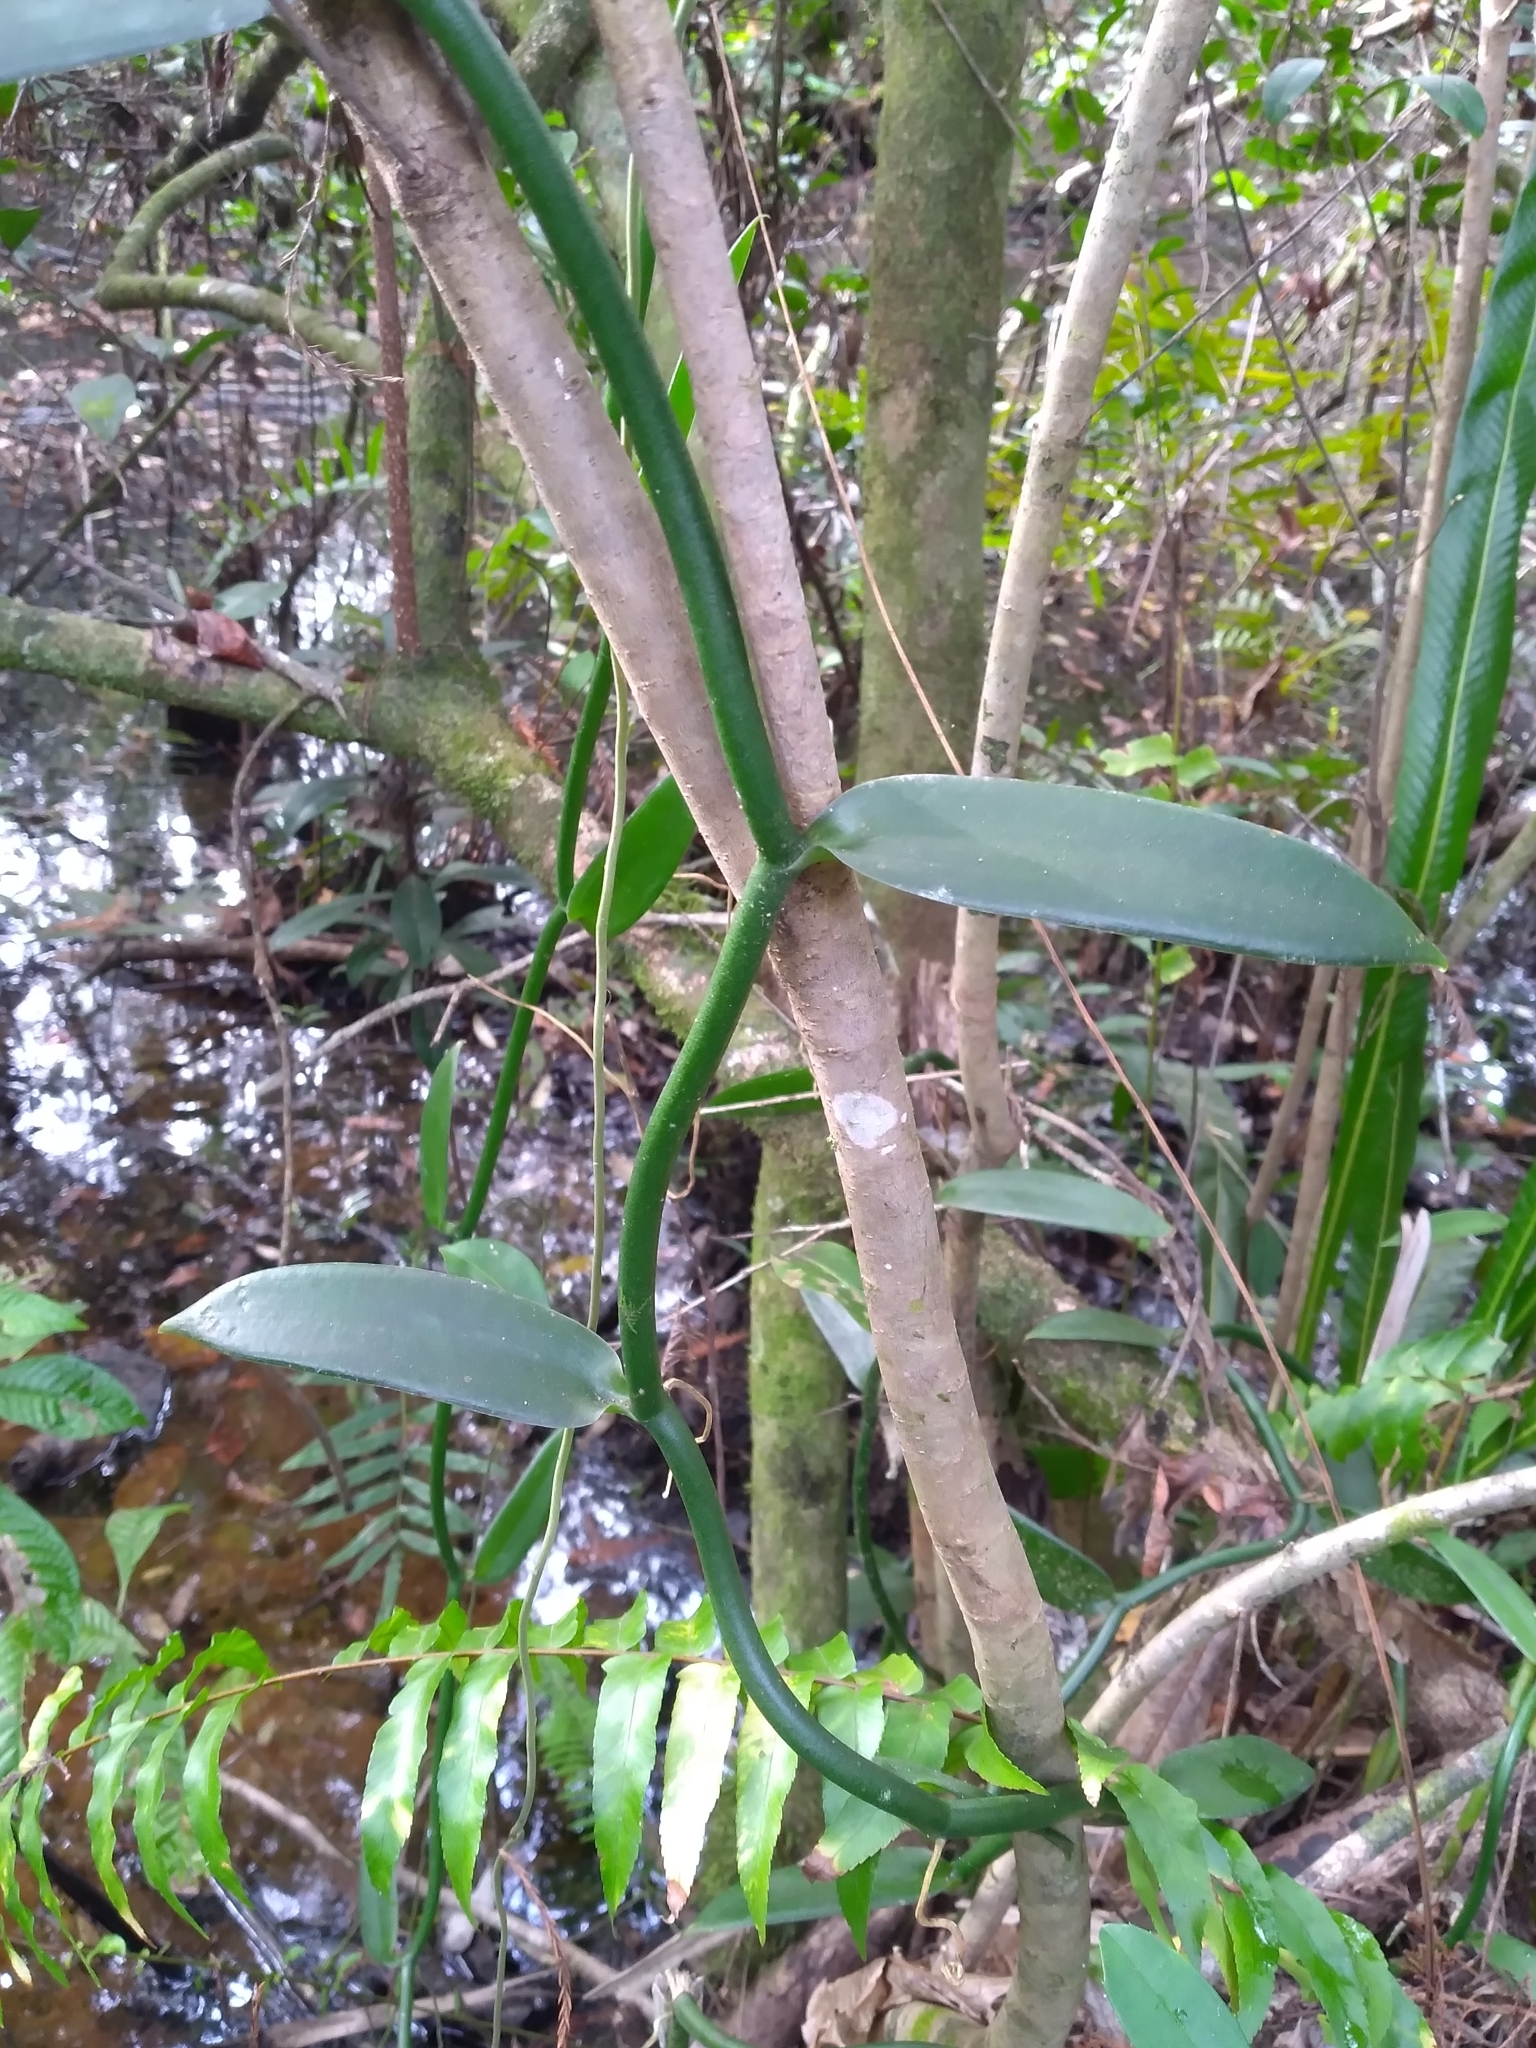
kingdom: Plantae
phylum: Tracheophyta
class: Liliopsida
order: Asparagales
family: Orchidaceae
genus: Vanilla
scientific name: Vanilla phaeantha
